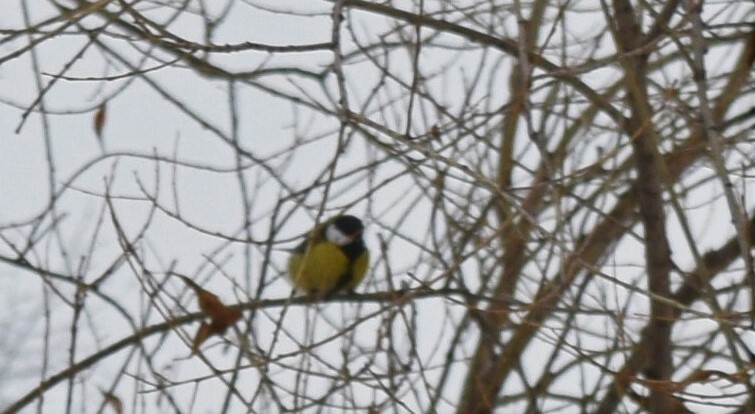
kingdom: Animalia
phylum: Chordata
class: Aves
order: Passeriformes
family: Paridae
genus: Parus
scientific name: Parus major
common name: Great tit
